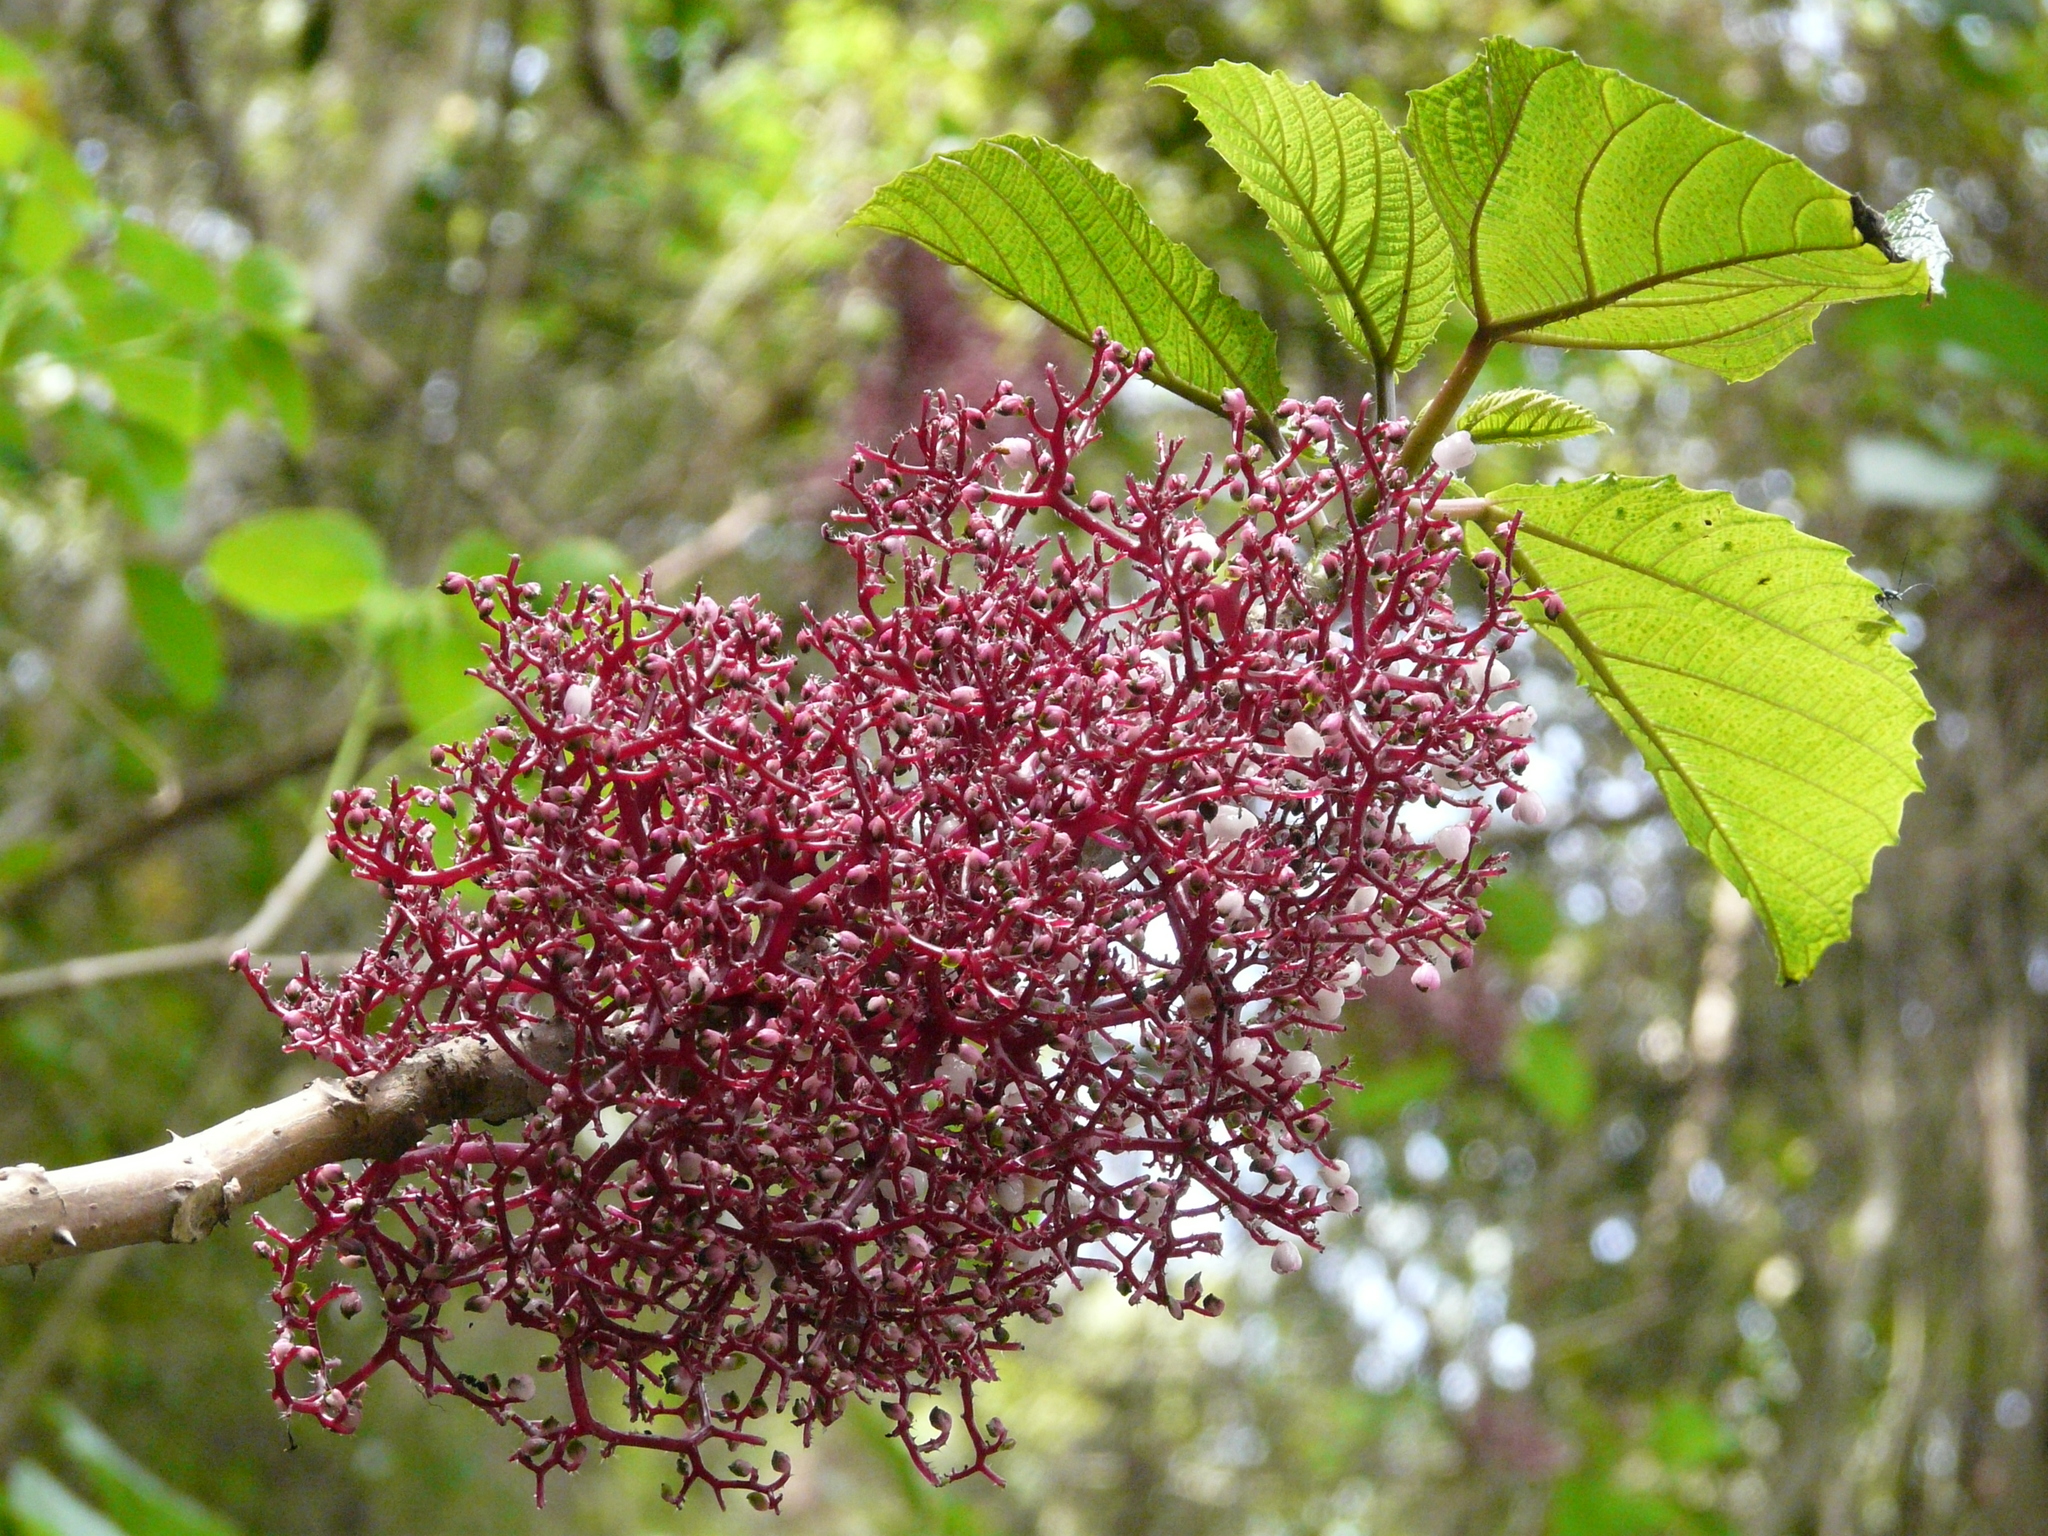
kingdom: Plantae
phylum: Tracheophyta
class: Magnoliopsida
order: Rosales
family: Urticaceae
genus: Urera
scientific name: Urera baccifera
